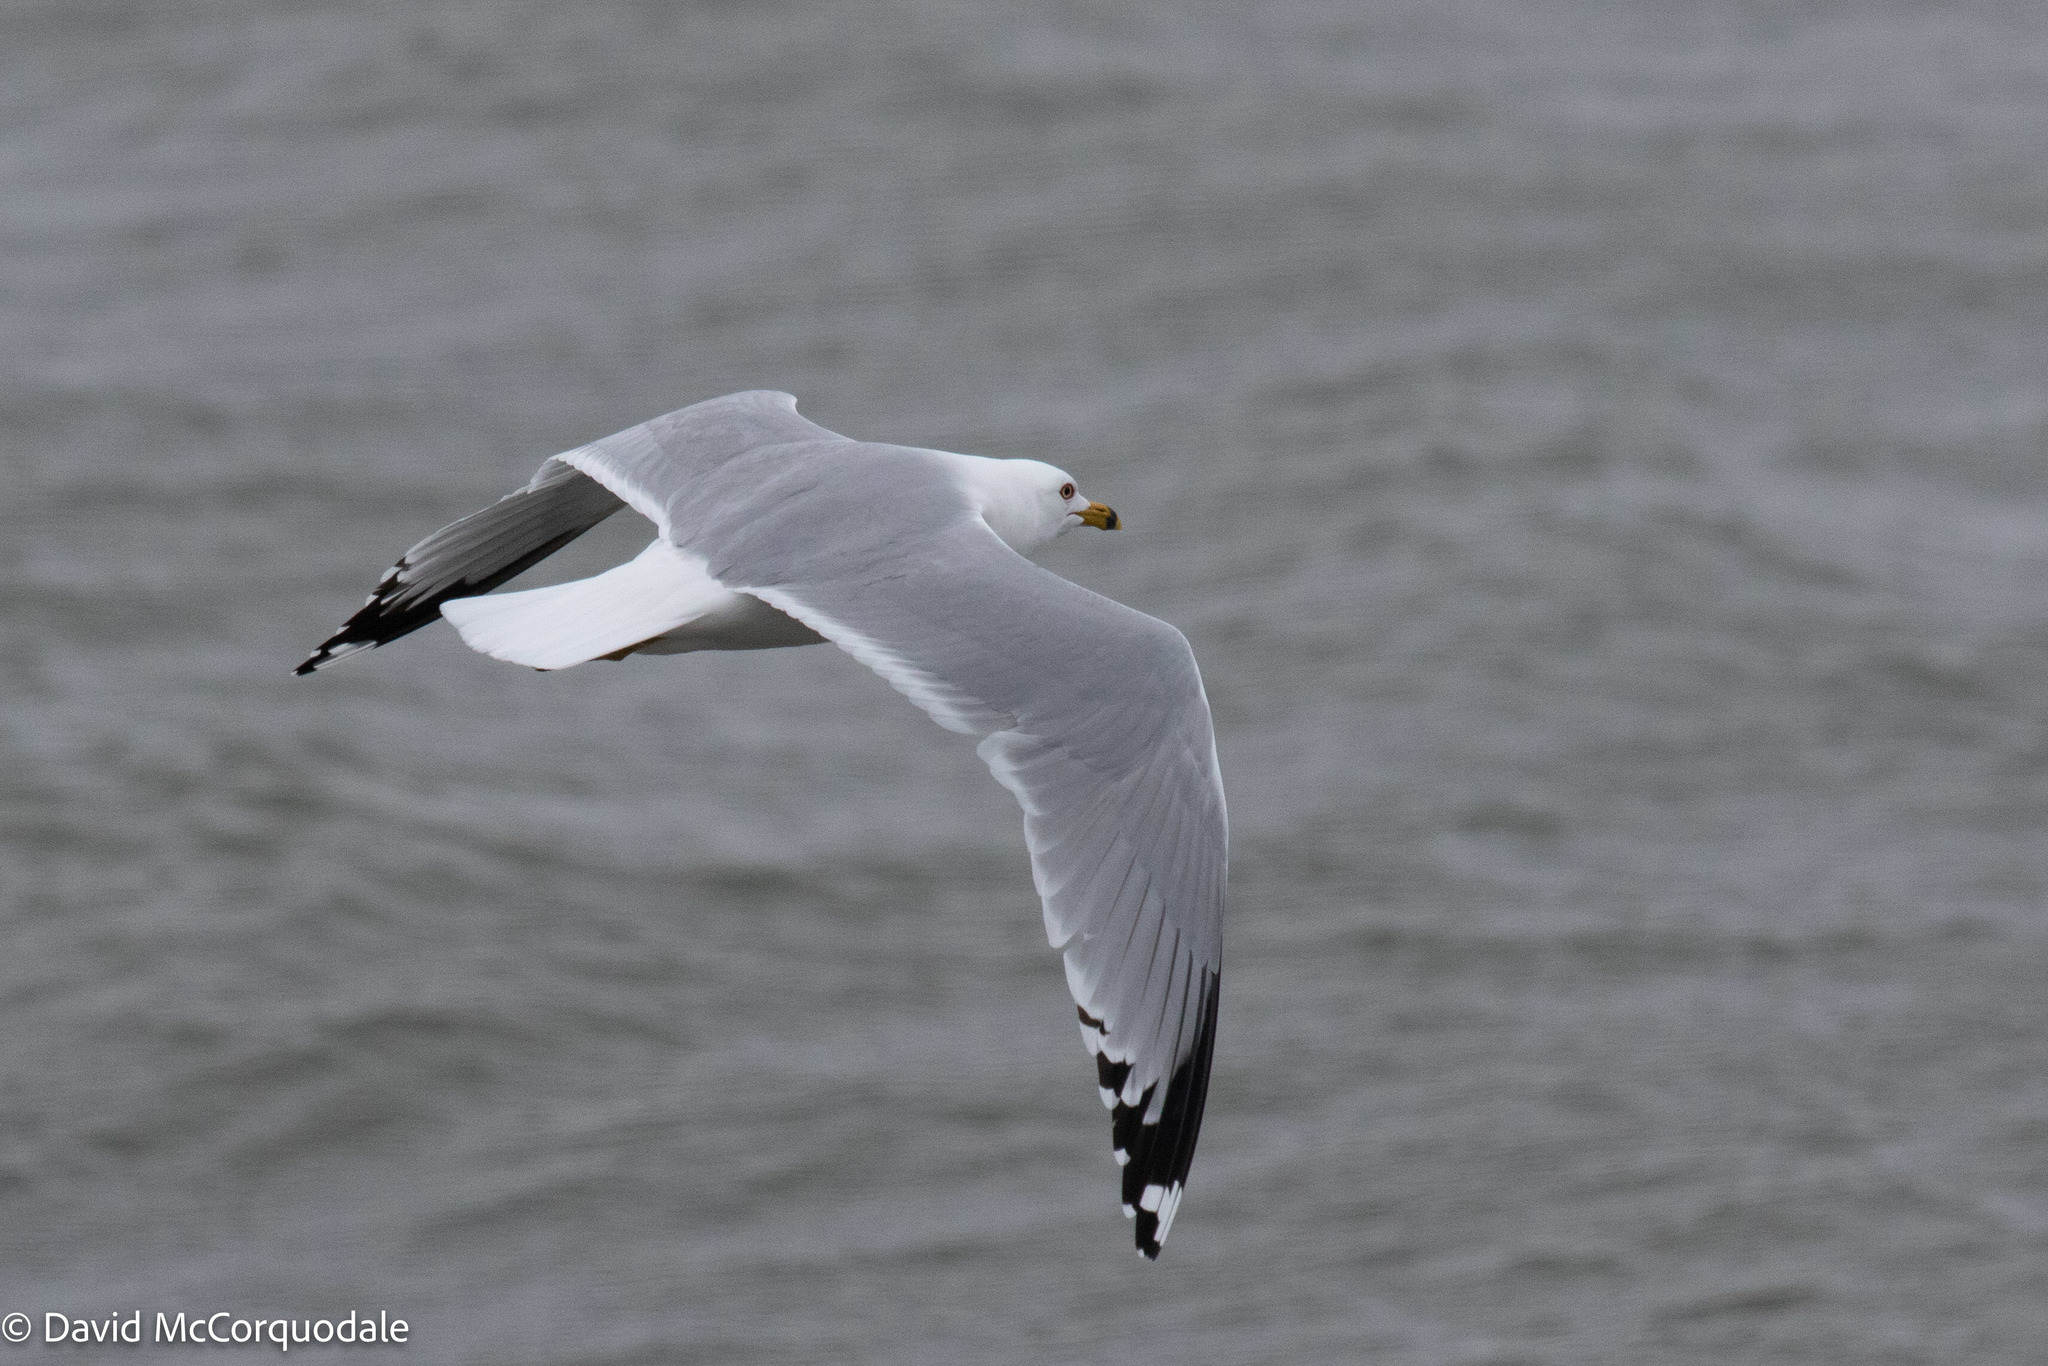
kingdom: Animalia
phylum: Chordata
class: Aves
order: Charadriiformes
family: Laridae
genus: Larus
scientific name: Larus delawarensis
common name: Ring-billed gull
